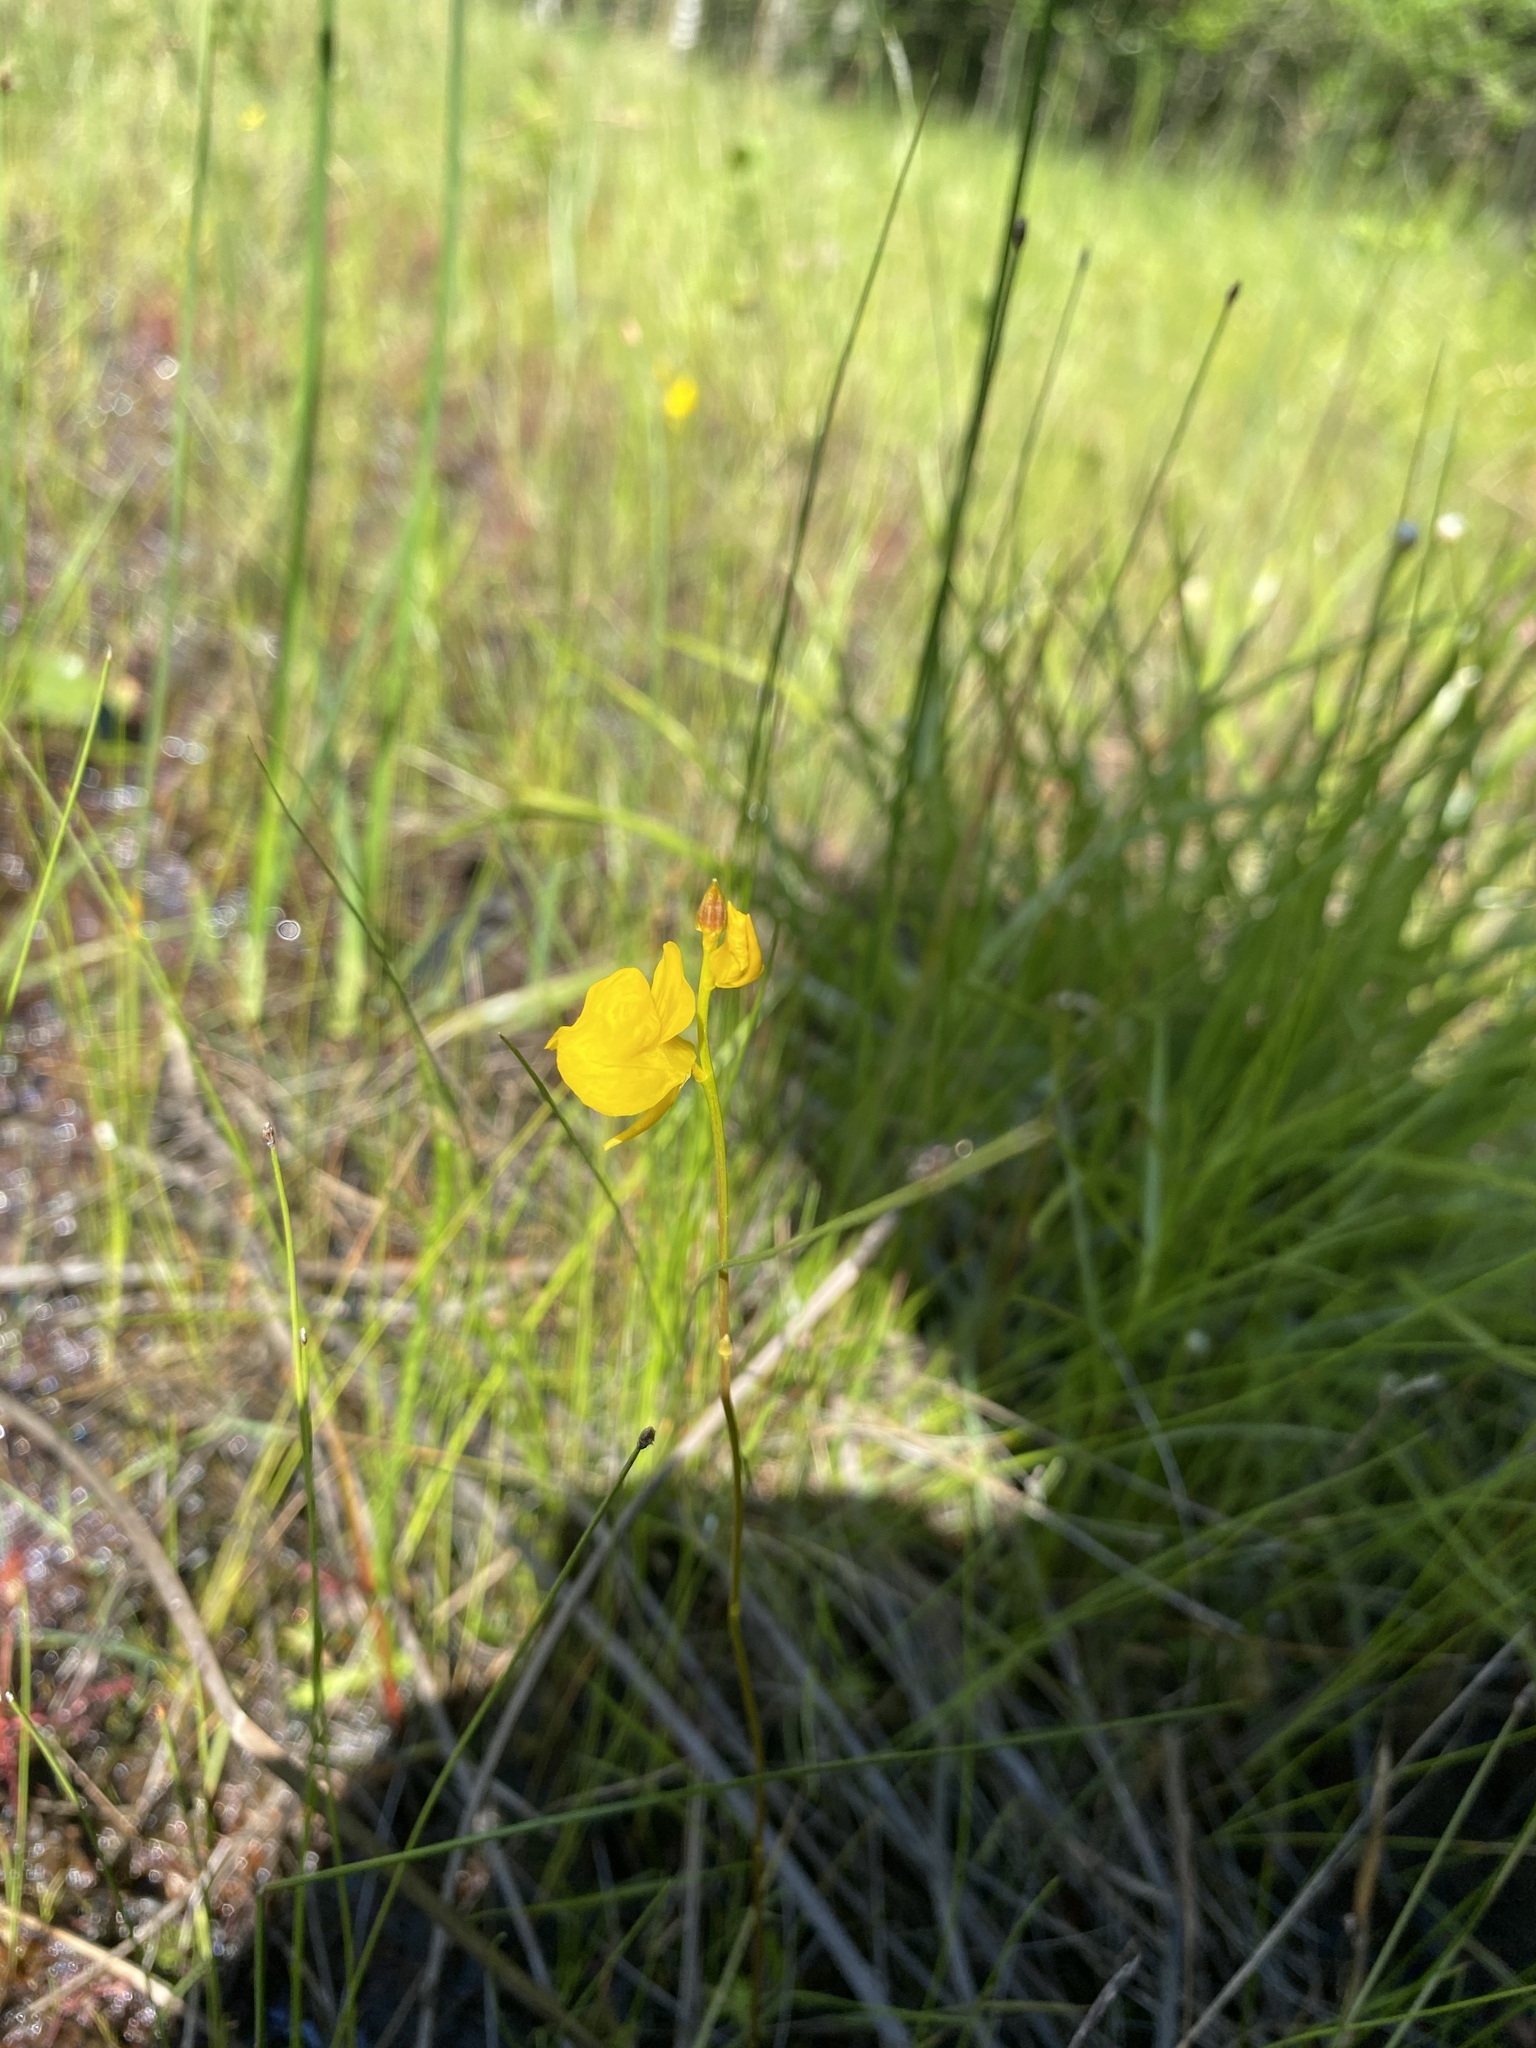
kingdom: Plantae
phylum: Tracheophyta
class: Magnoliopsida
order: Lamiales
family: Lentibulariaceae
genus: Utricularia
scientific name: Utricularia cornuta
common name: Horned bladderwort
